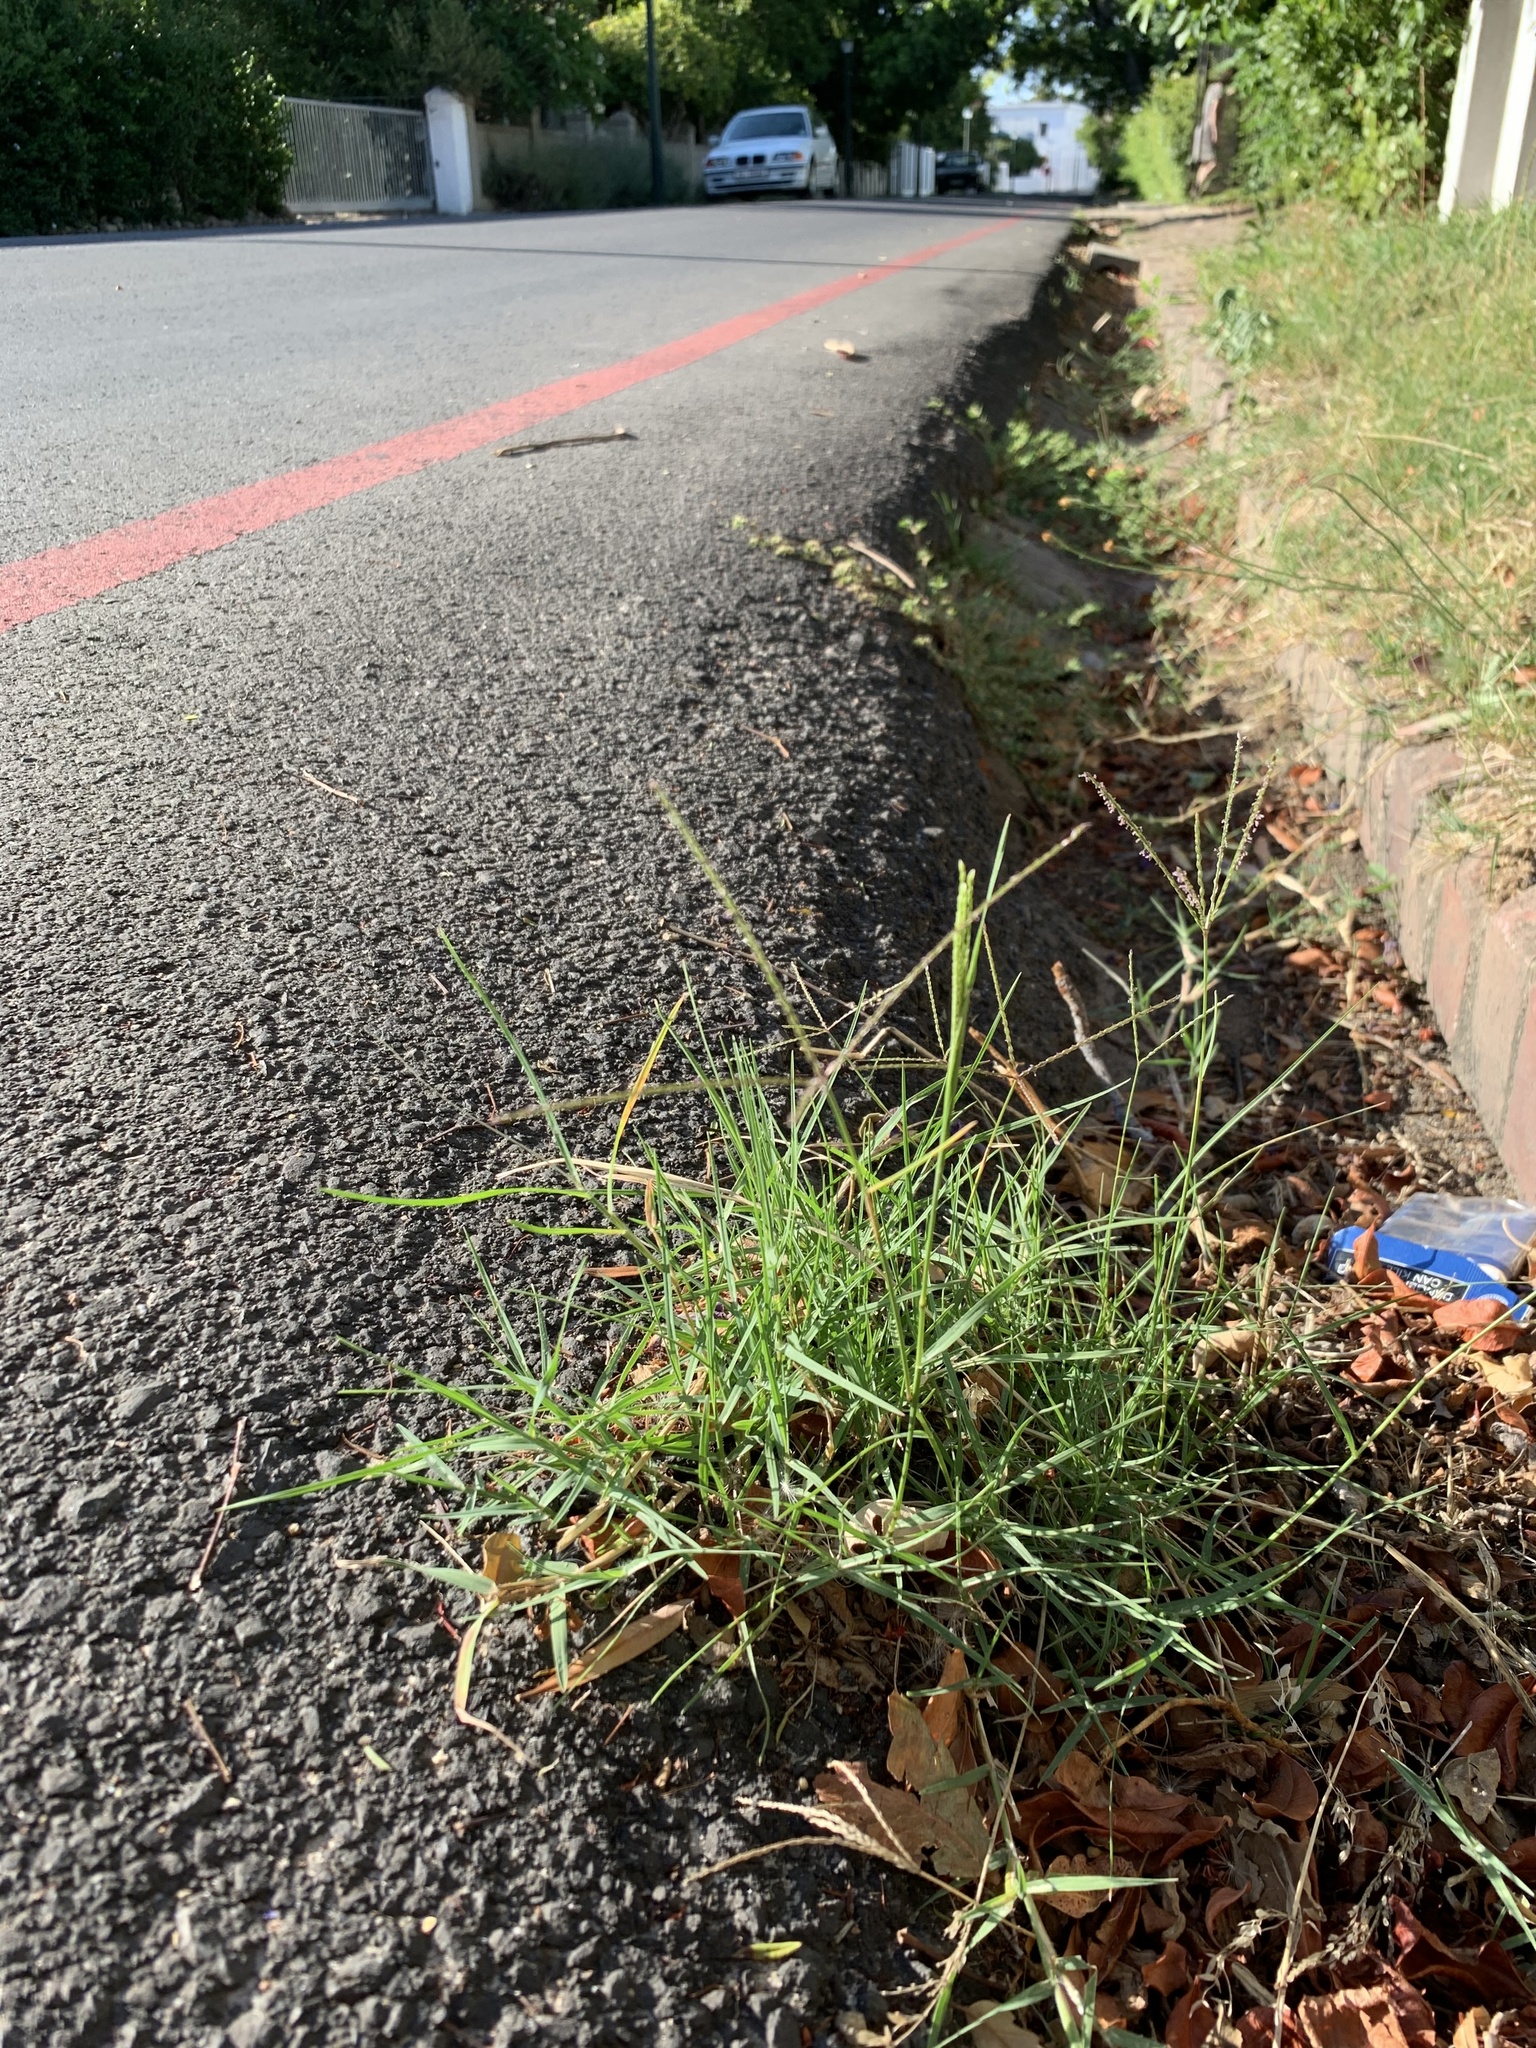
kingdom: Plantae
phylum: Tracheophyta
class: Liliopsida
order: Poales
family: Poaceae
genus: Cynodon
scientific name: Cynodon dactylon
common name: Bermuda grass
